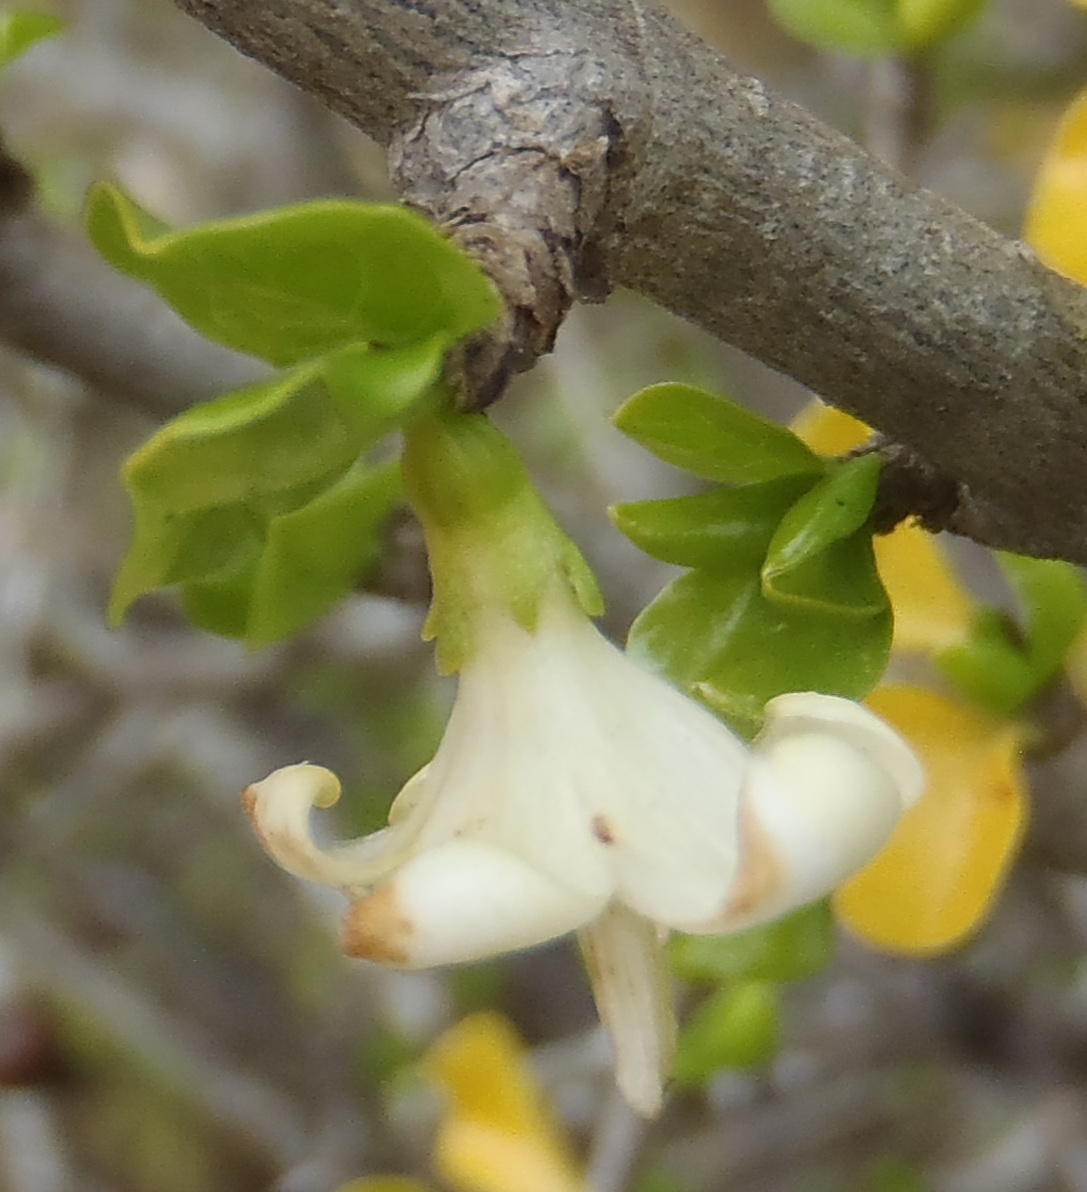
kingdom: Plantae
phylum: Tracheophyta
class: Magnoliopsida
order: Gentianales
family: Rubiaceae
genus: Coddia
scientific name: Coddia rudis
